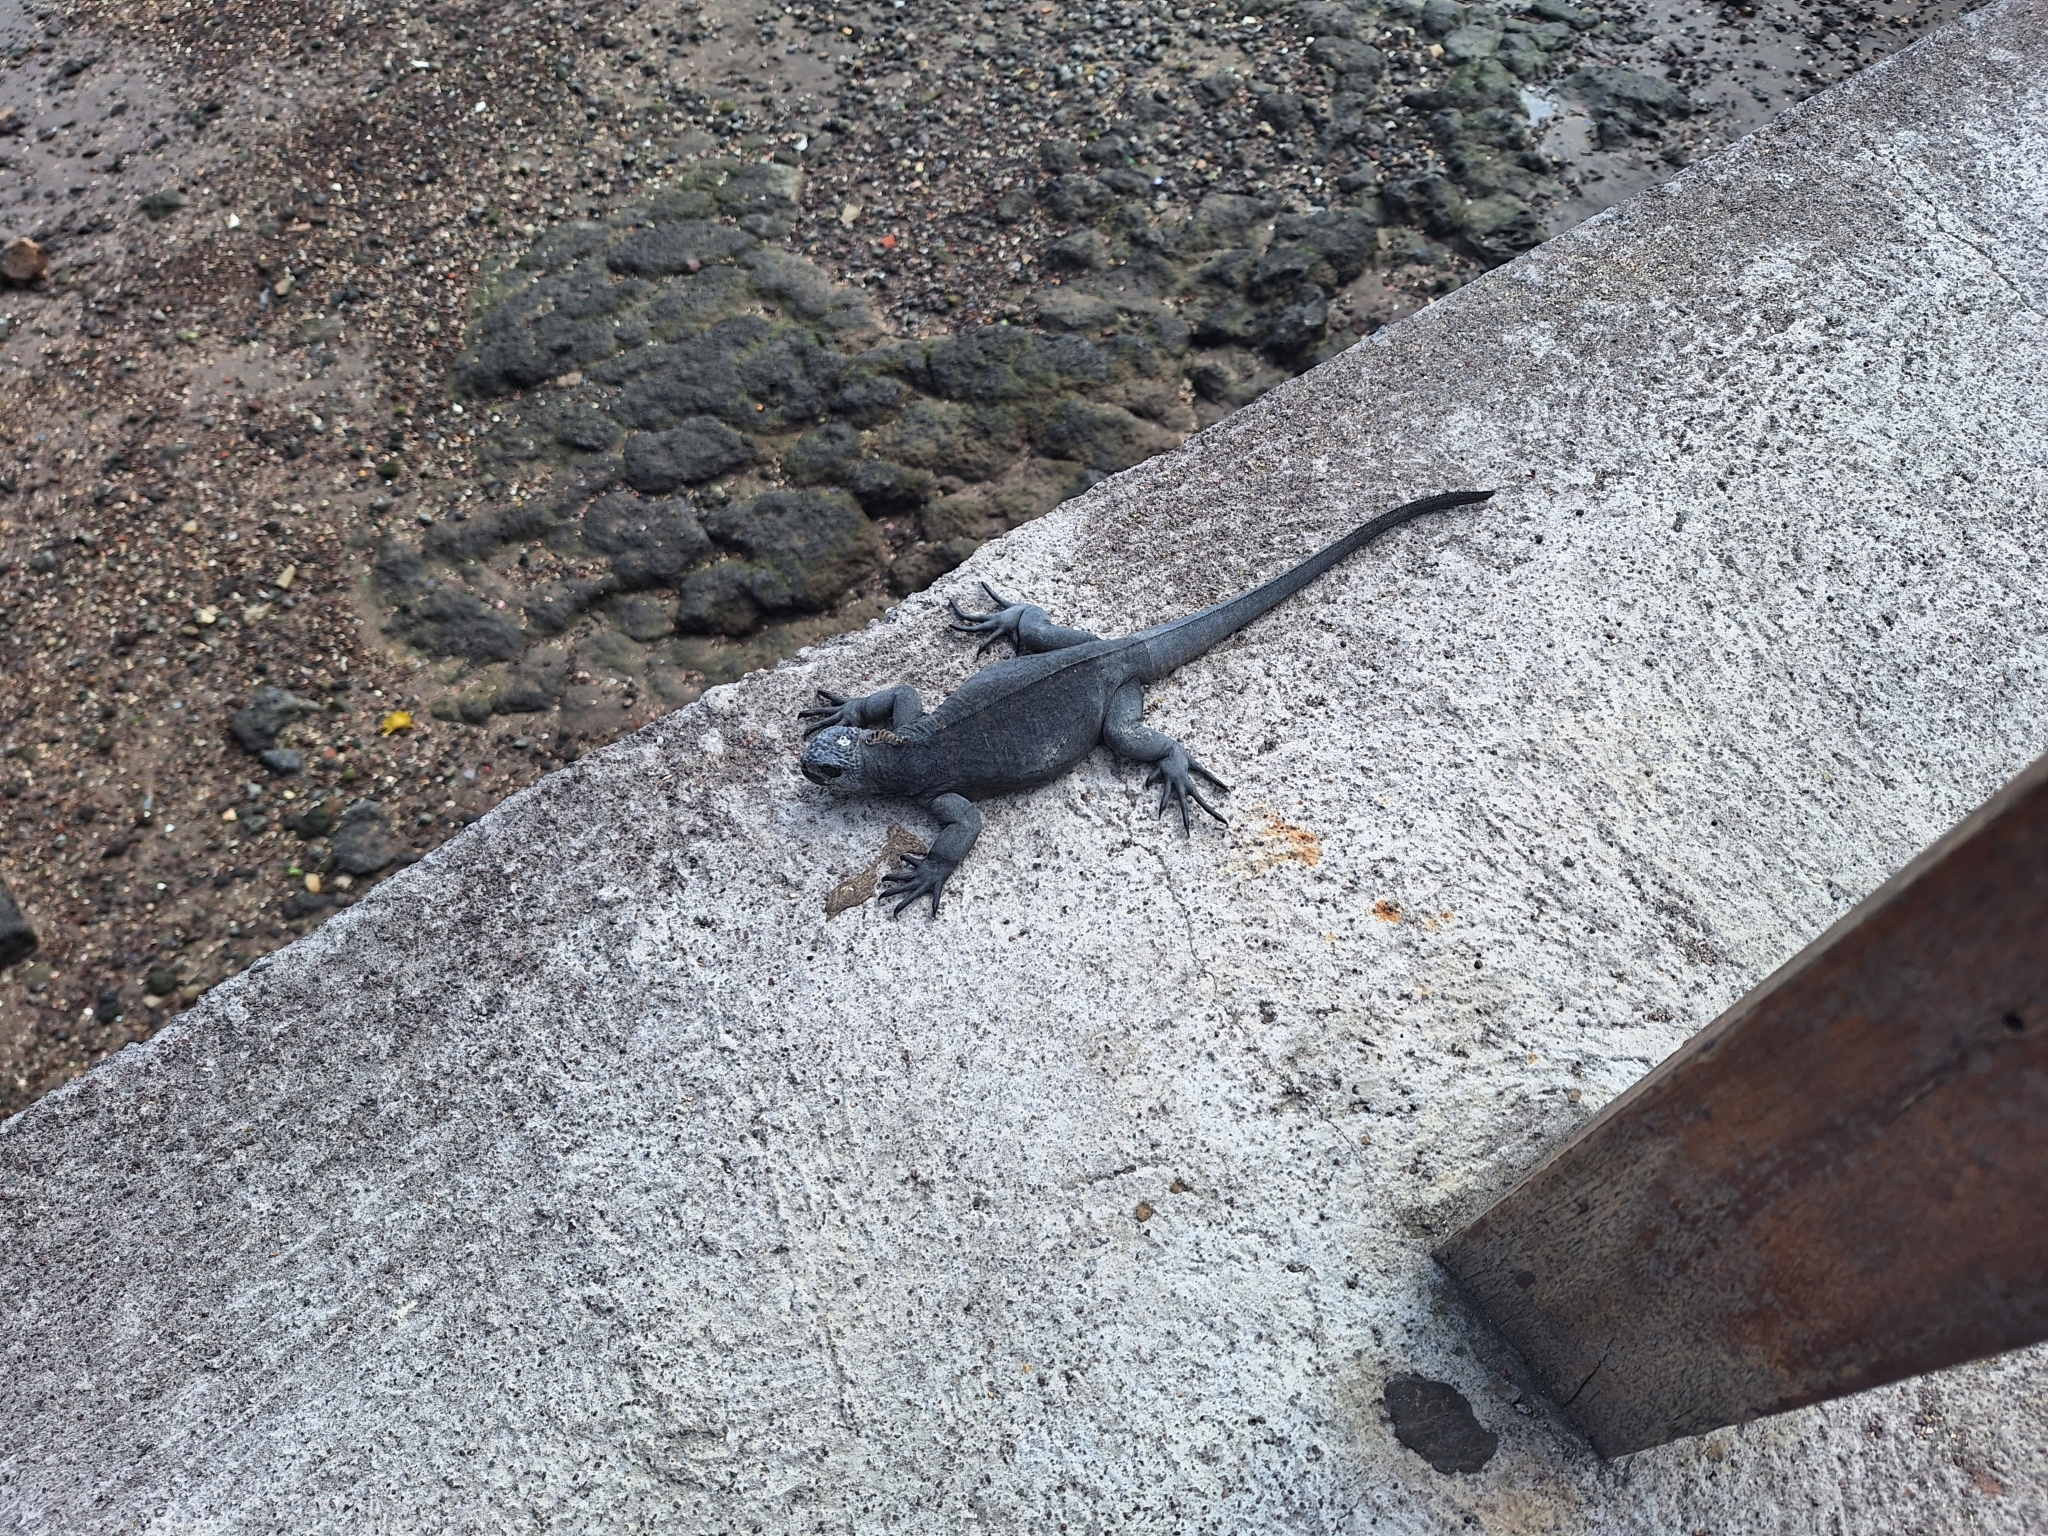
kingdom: Animalia
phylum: Chordata
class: Squamata
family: Iguanidae
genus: Amblyrhynchus
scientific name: Amblyrhynchus cristatus
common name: Marine iguana
